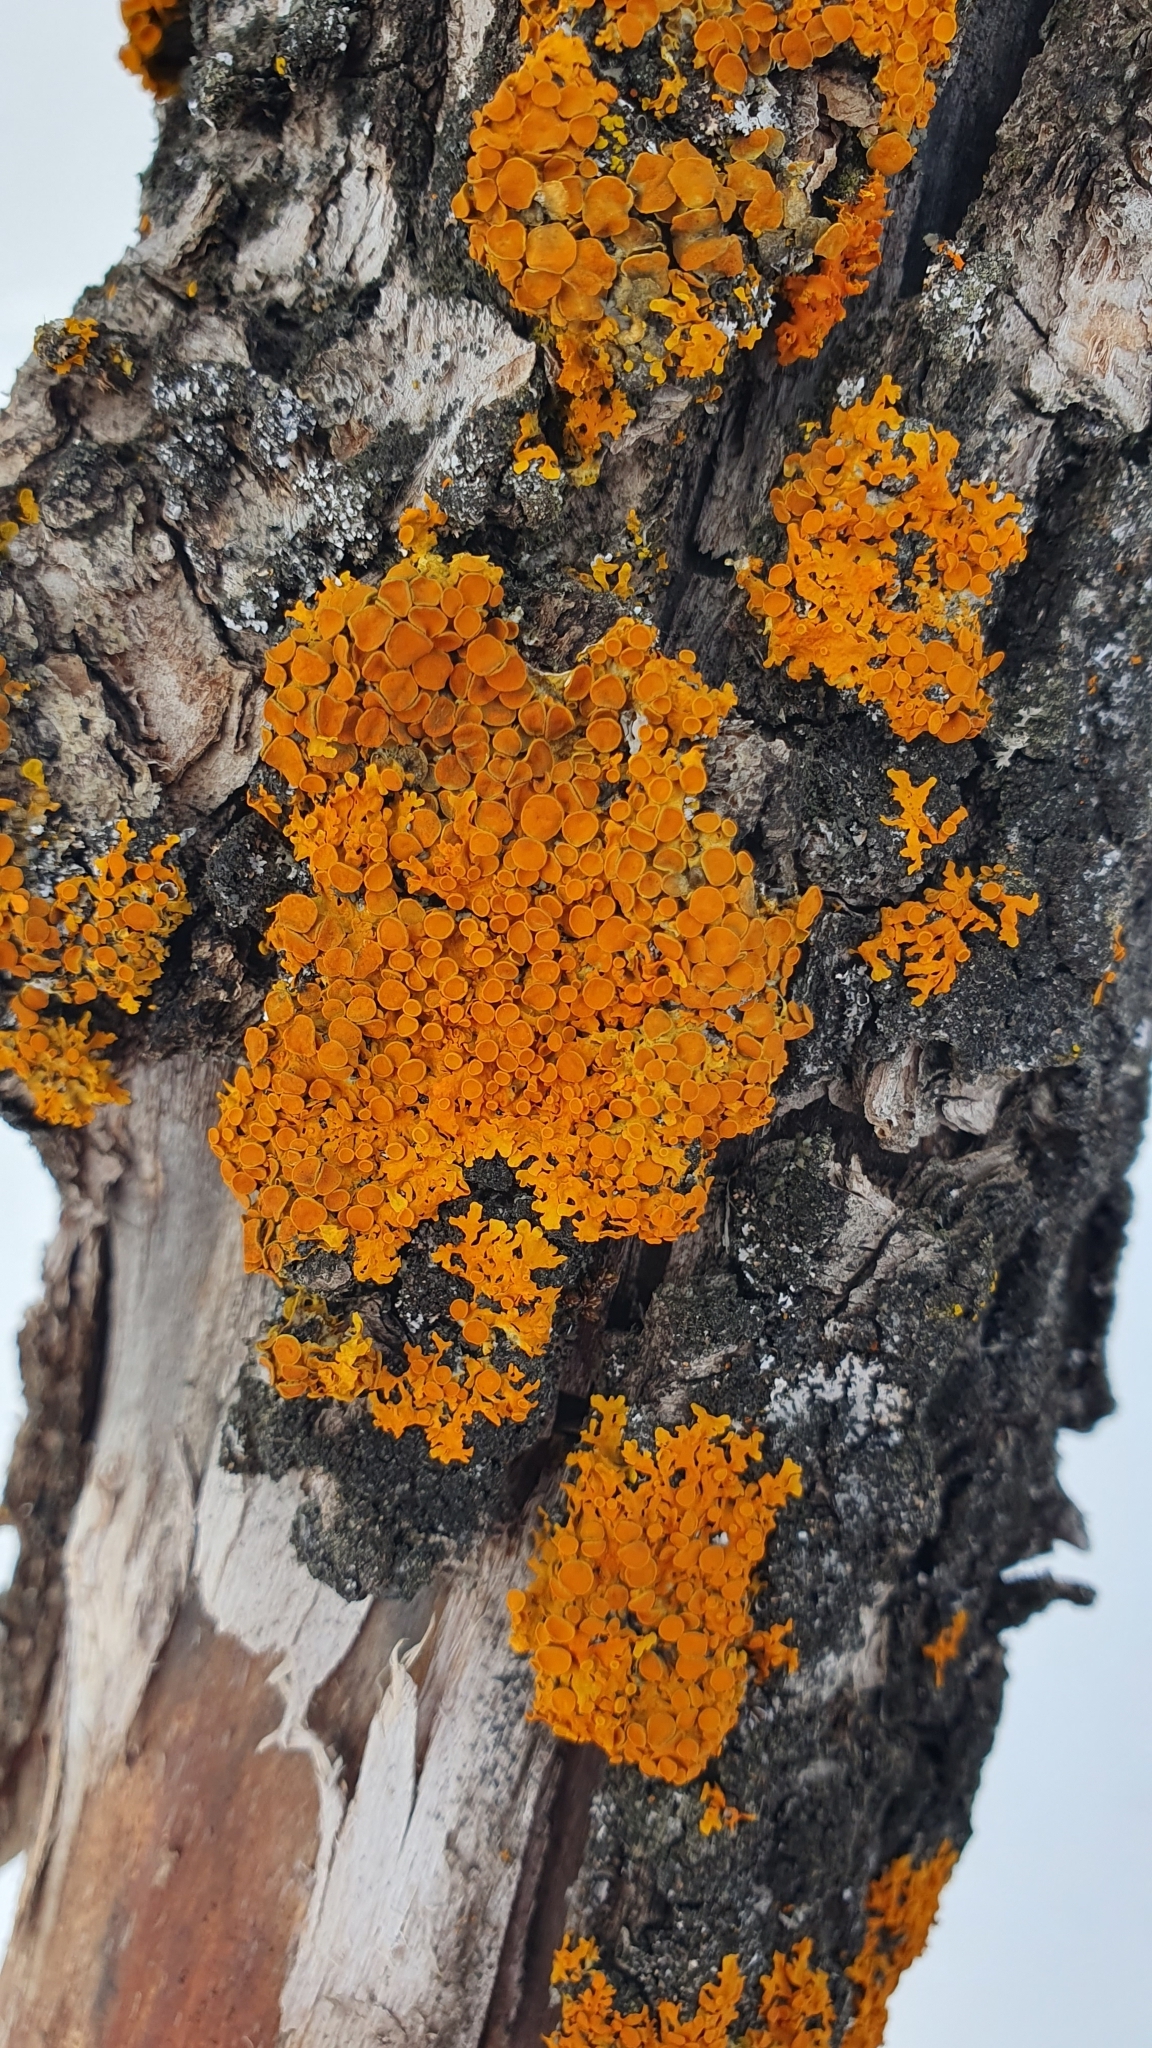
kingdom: Fungi
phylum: Ascomycota
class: Lecanoromycetes
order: Teloschistales
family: Teloschistaceae
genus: Xanthoria
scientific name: Xanthoria parietina
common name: Common orange lichen
